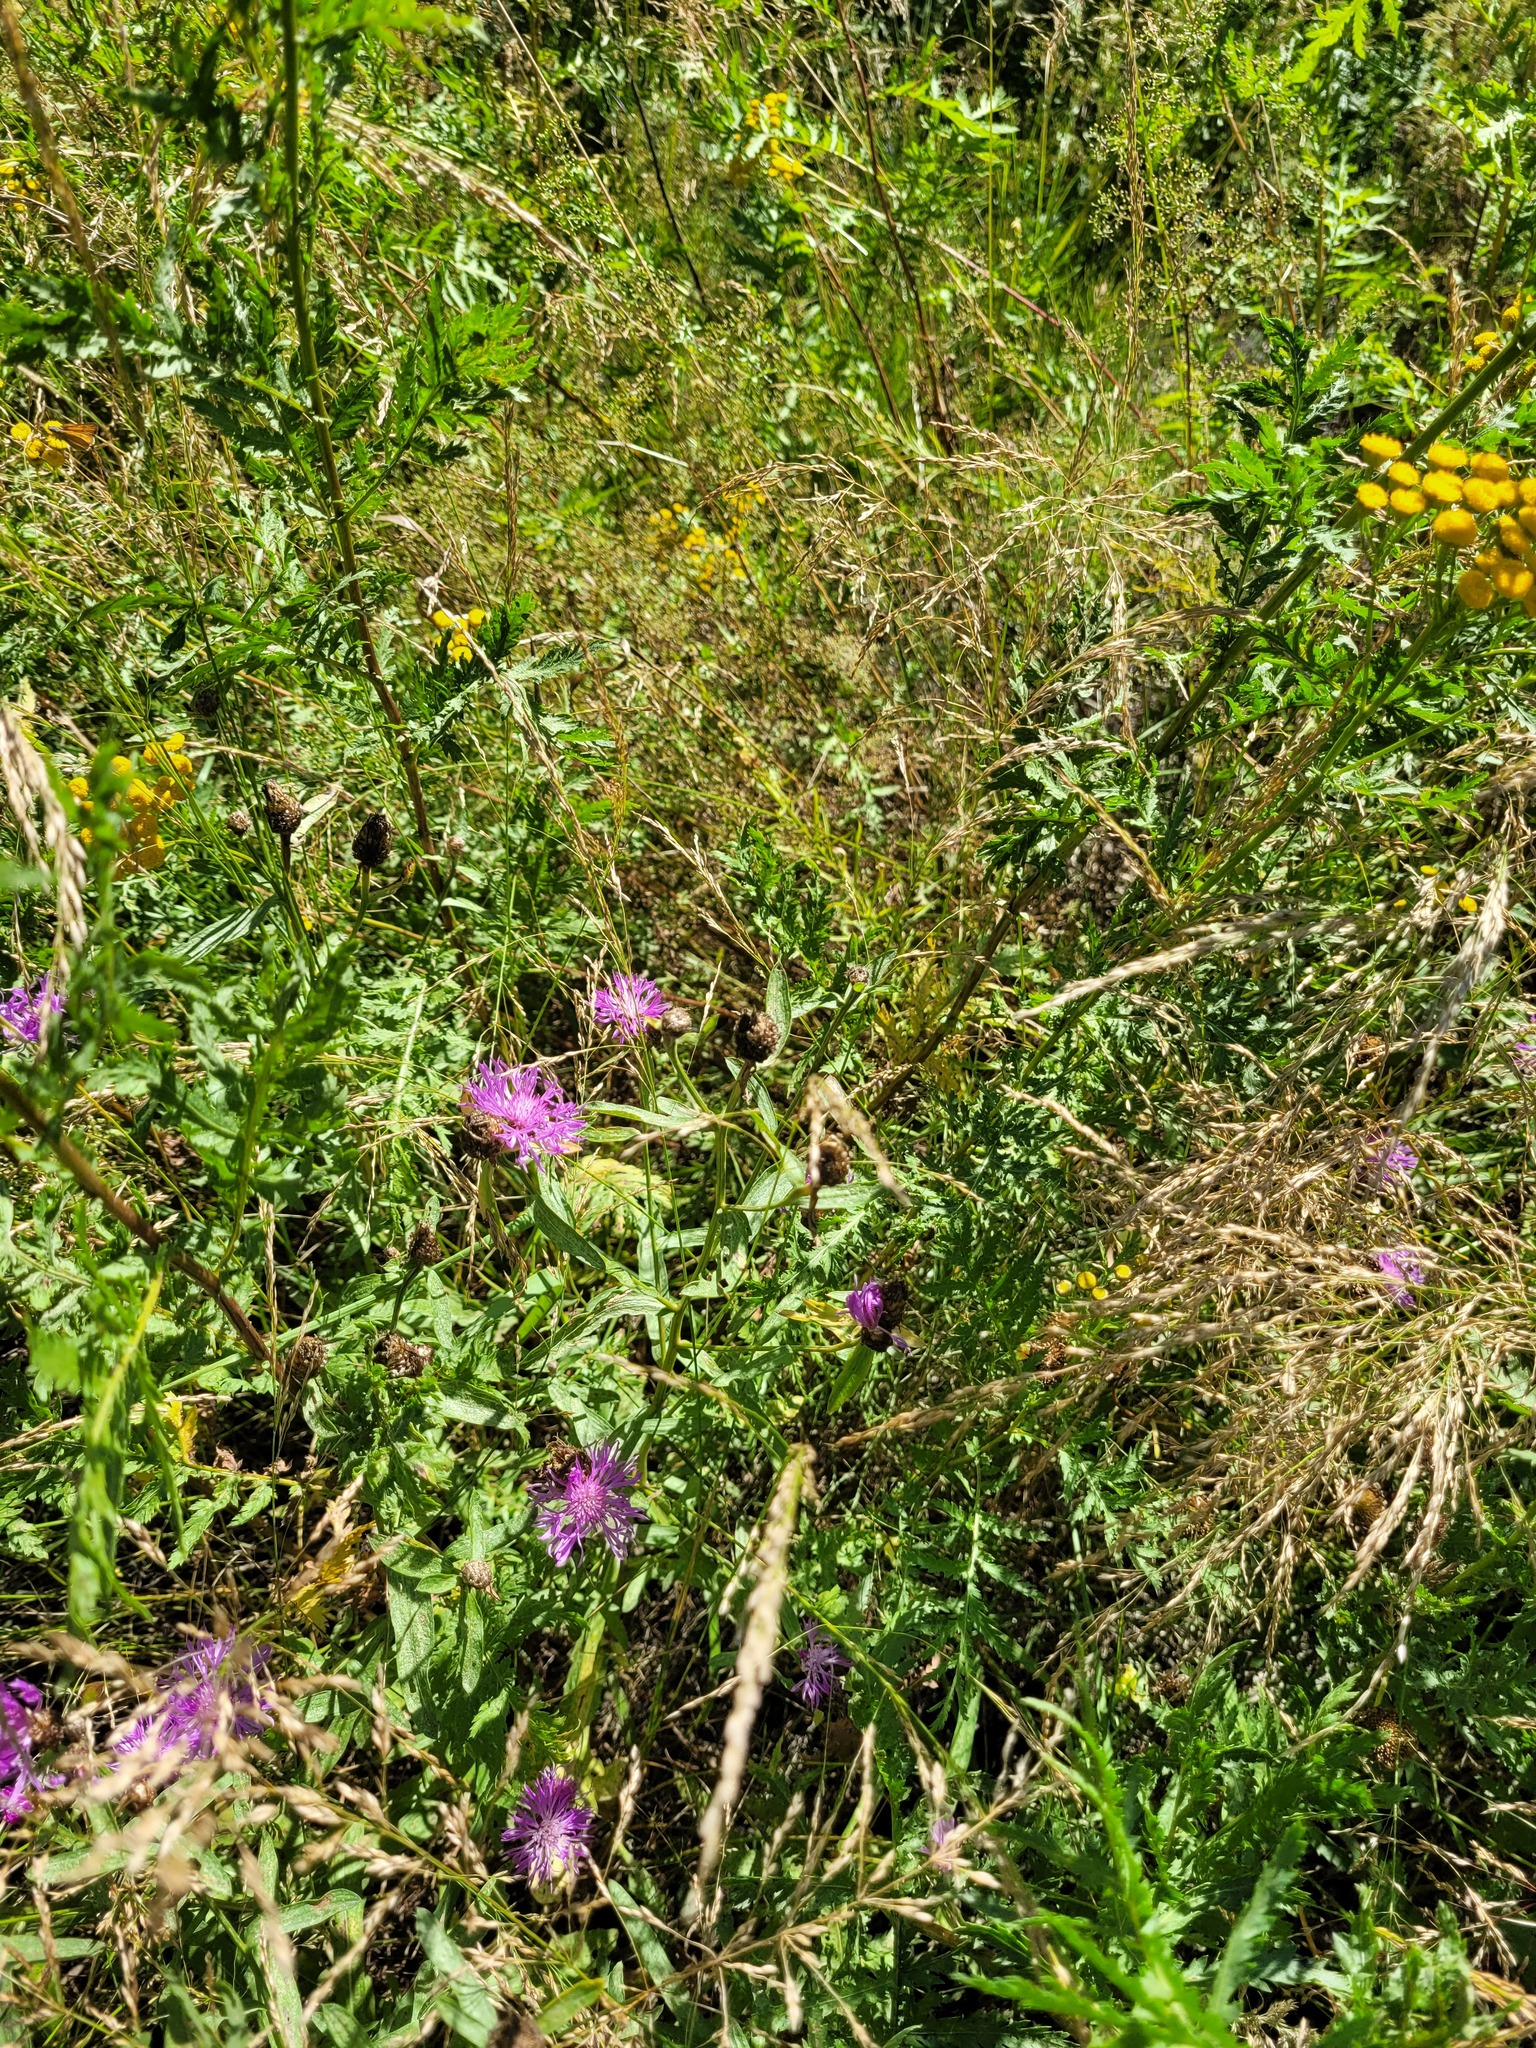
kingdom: Plantae
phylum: Tracheophyta
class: Magnoliopsida
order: Asterales
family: Asteraceae
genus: Centaurea
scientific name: Centaurea jacea
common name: Brown knapweed
